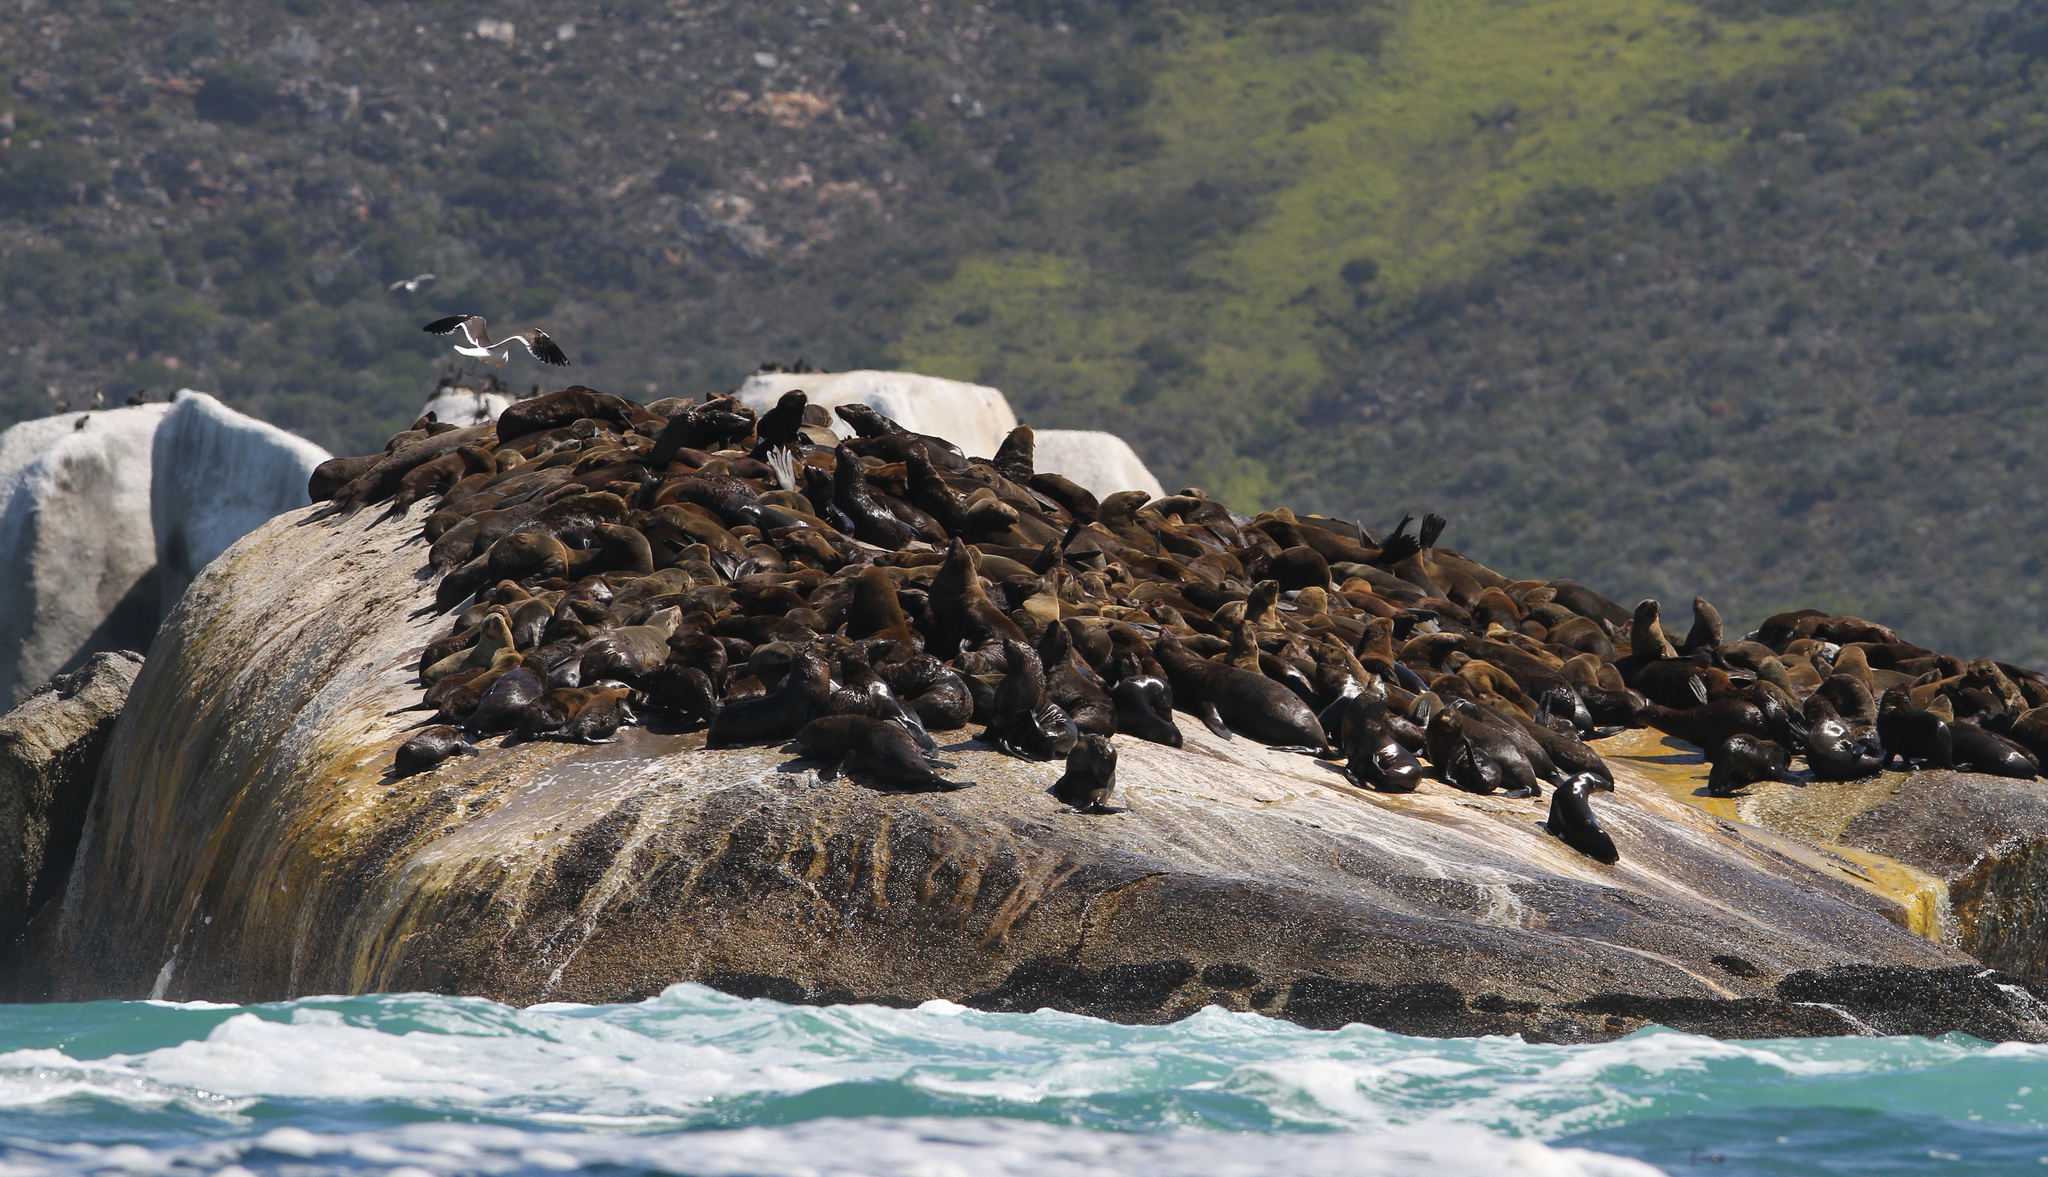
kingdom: Animalia
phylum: Chordata
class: Mammalia
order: Carnivora
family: Otariidae
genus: Arctocephalus
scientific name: Arctocephalus pusillus
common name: Brown fur seal
